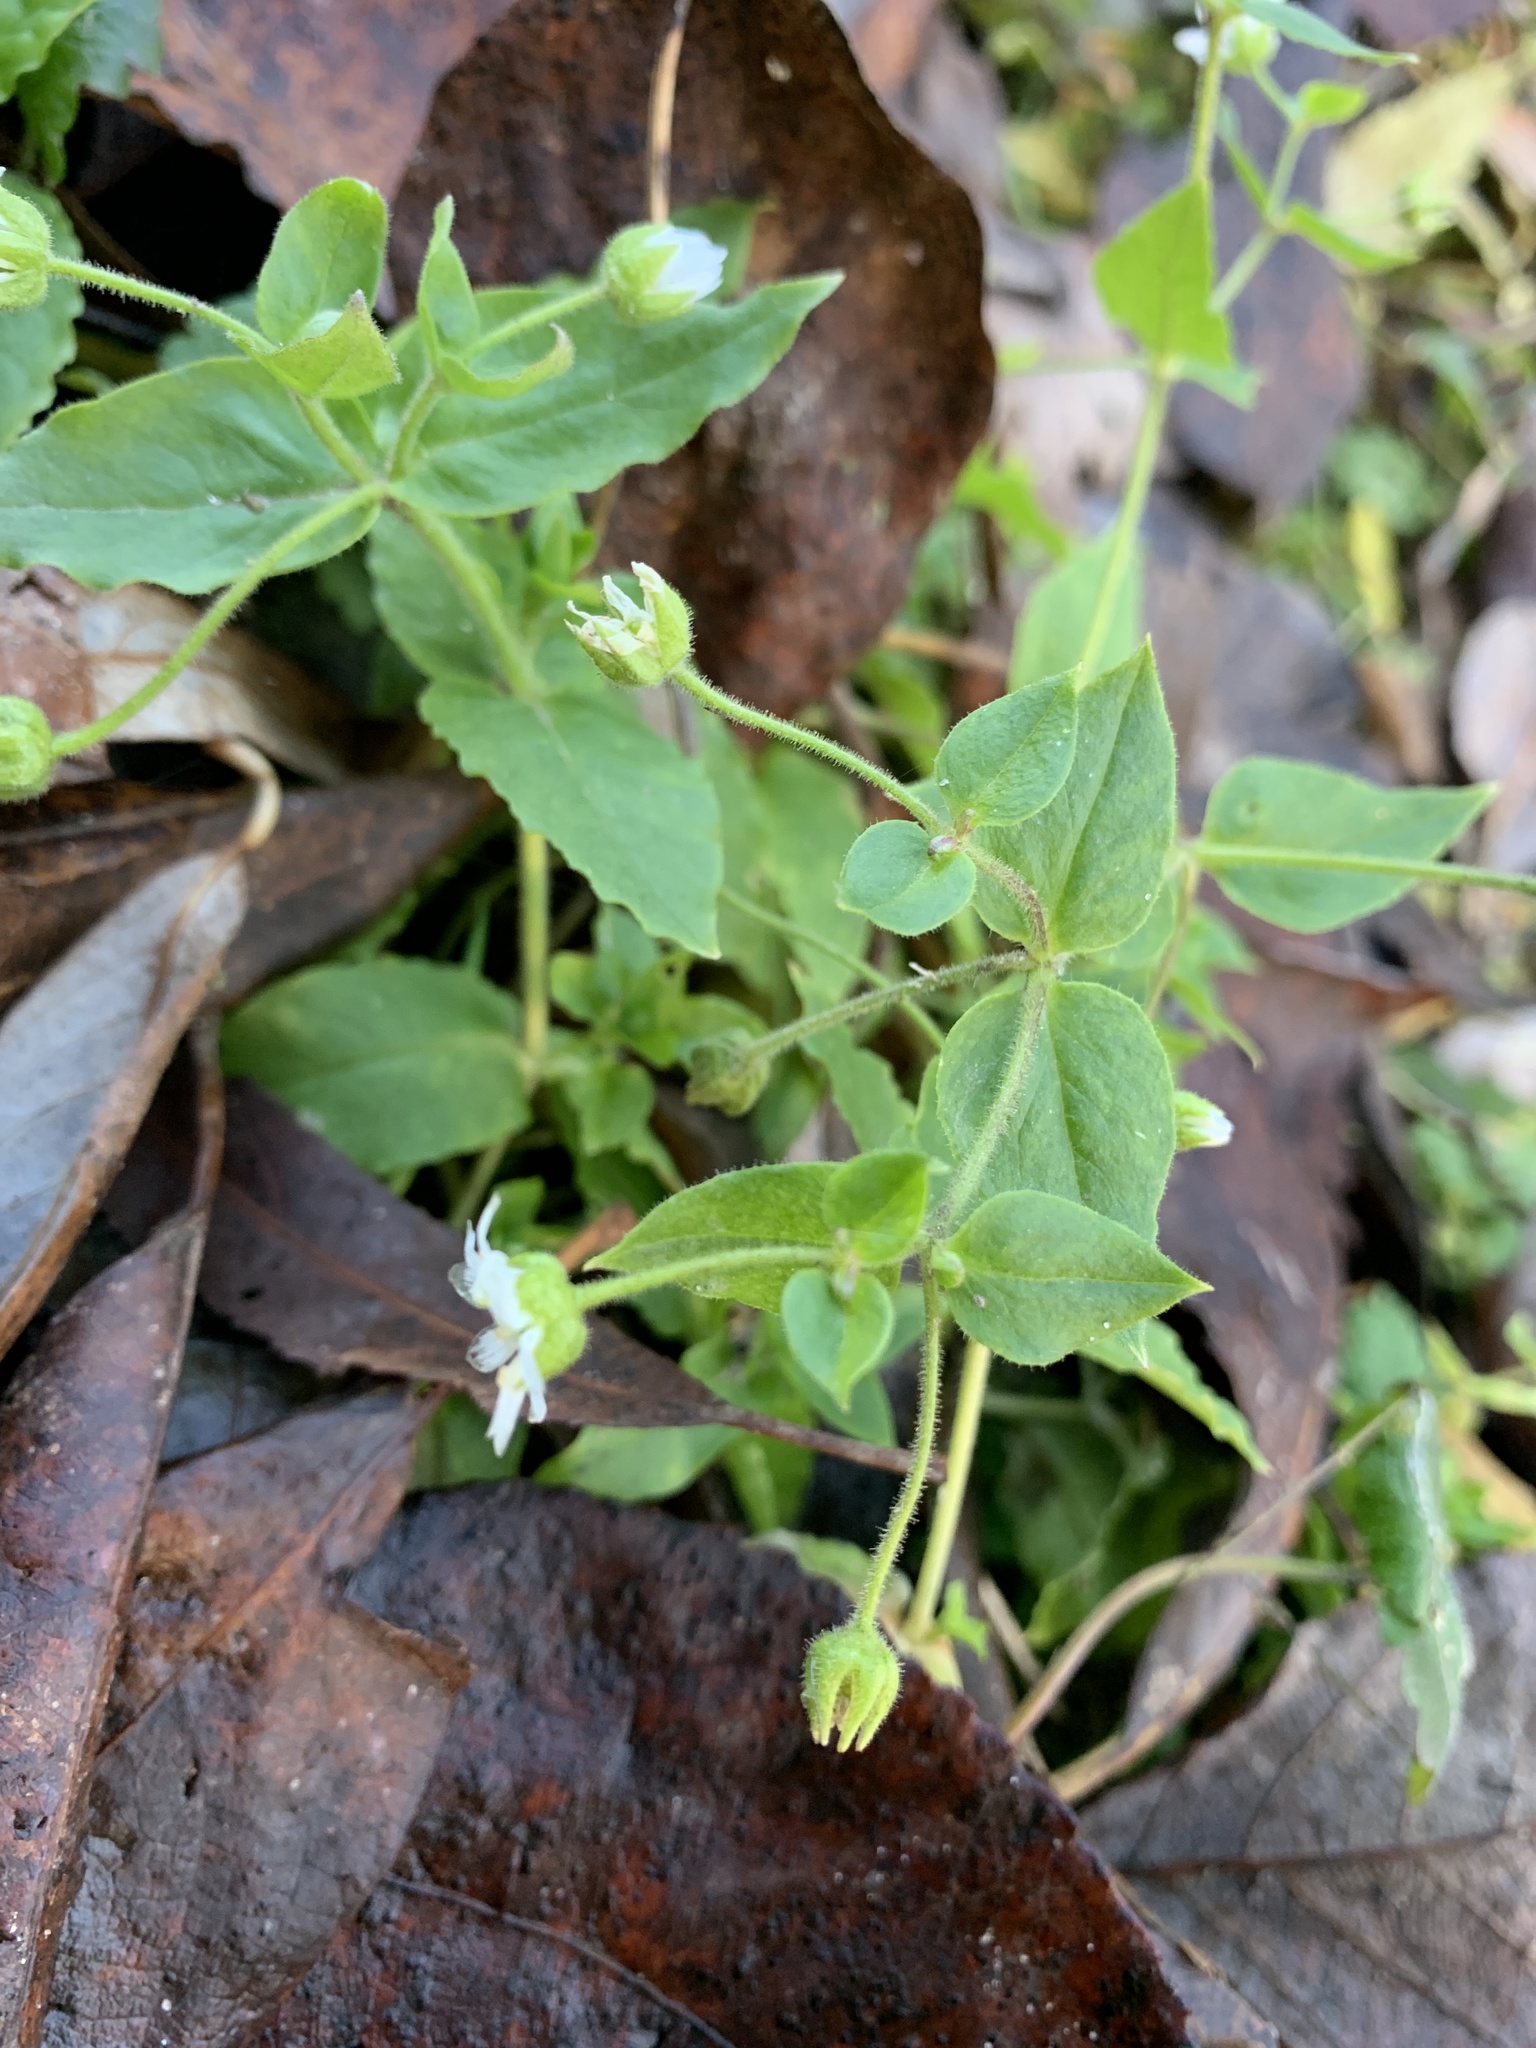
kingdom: Plantae
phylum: Tracheophyta
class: Magnoliopsida
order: Caryophyllales
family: Caryophyllaceae
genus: Stellaria
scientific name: Stellaria aquatica
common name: Water chickweed
